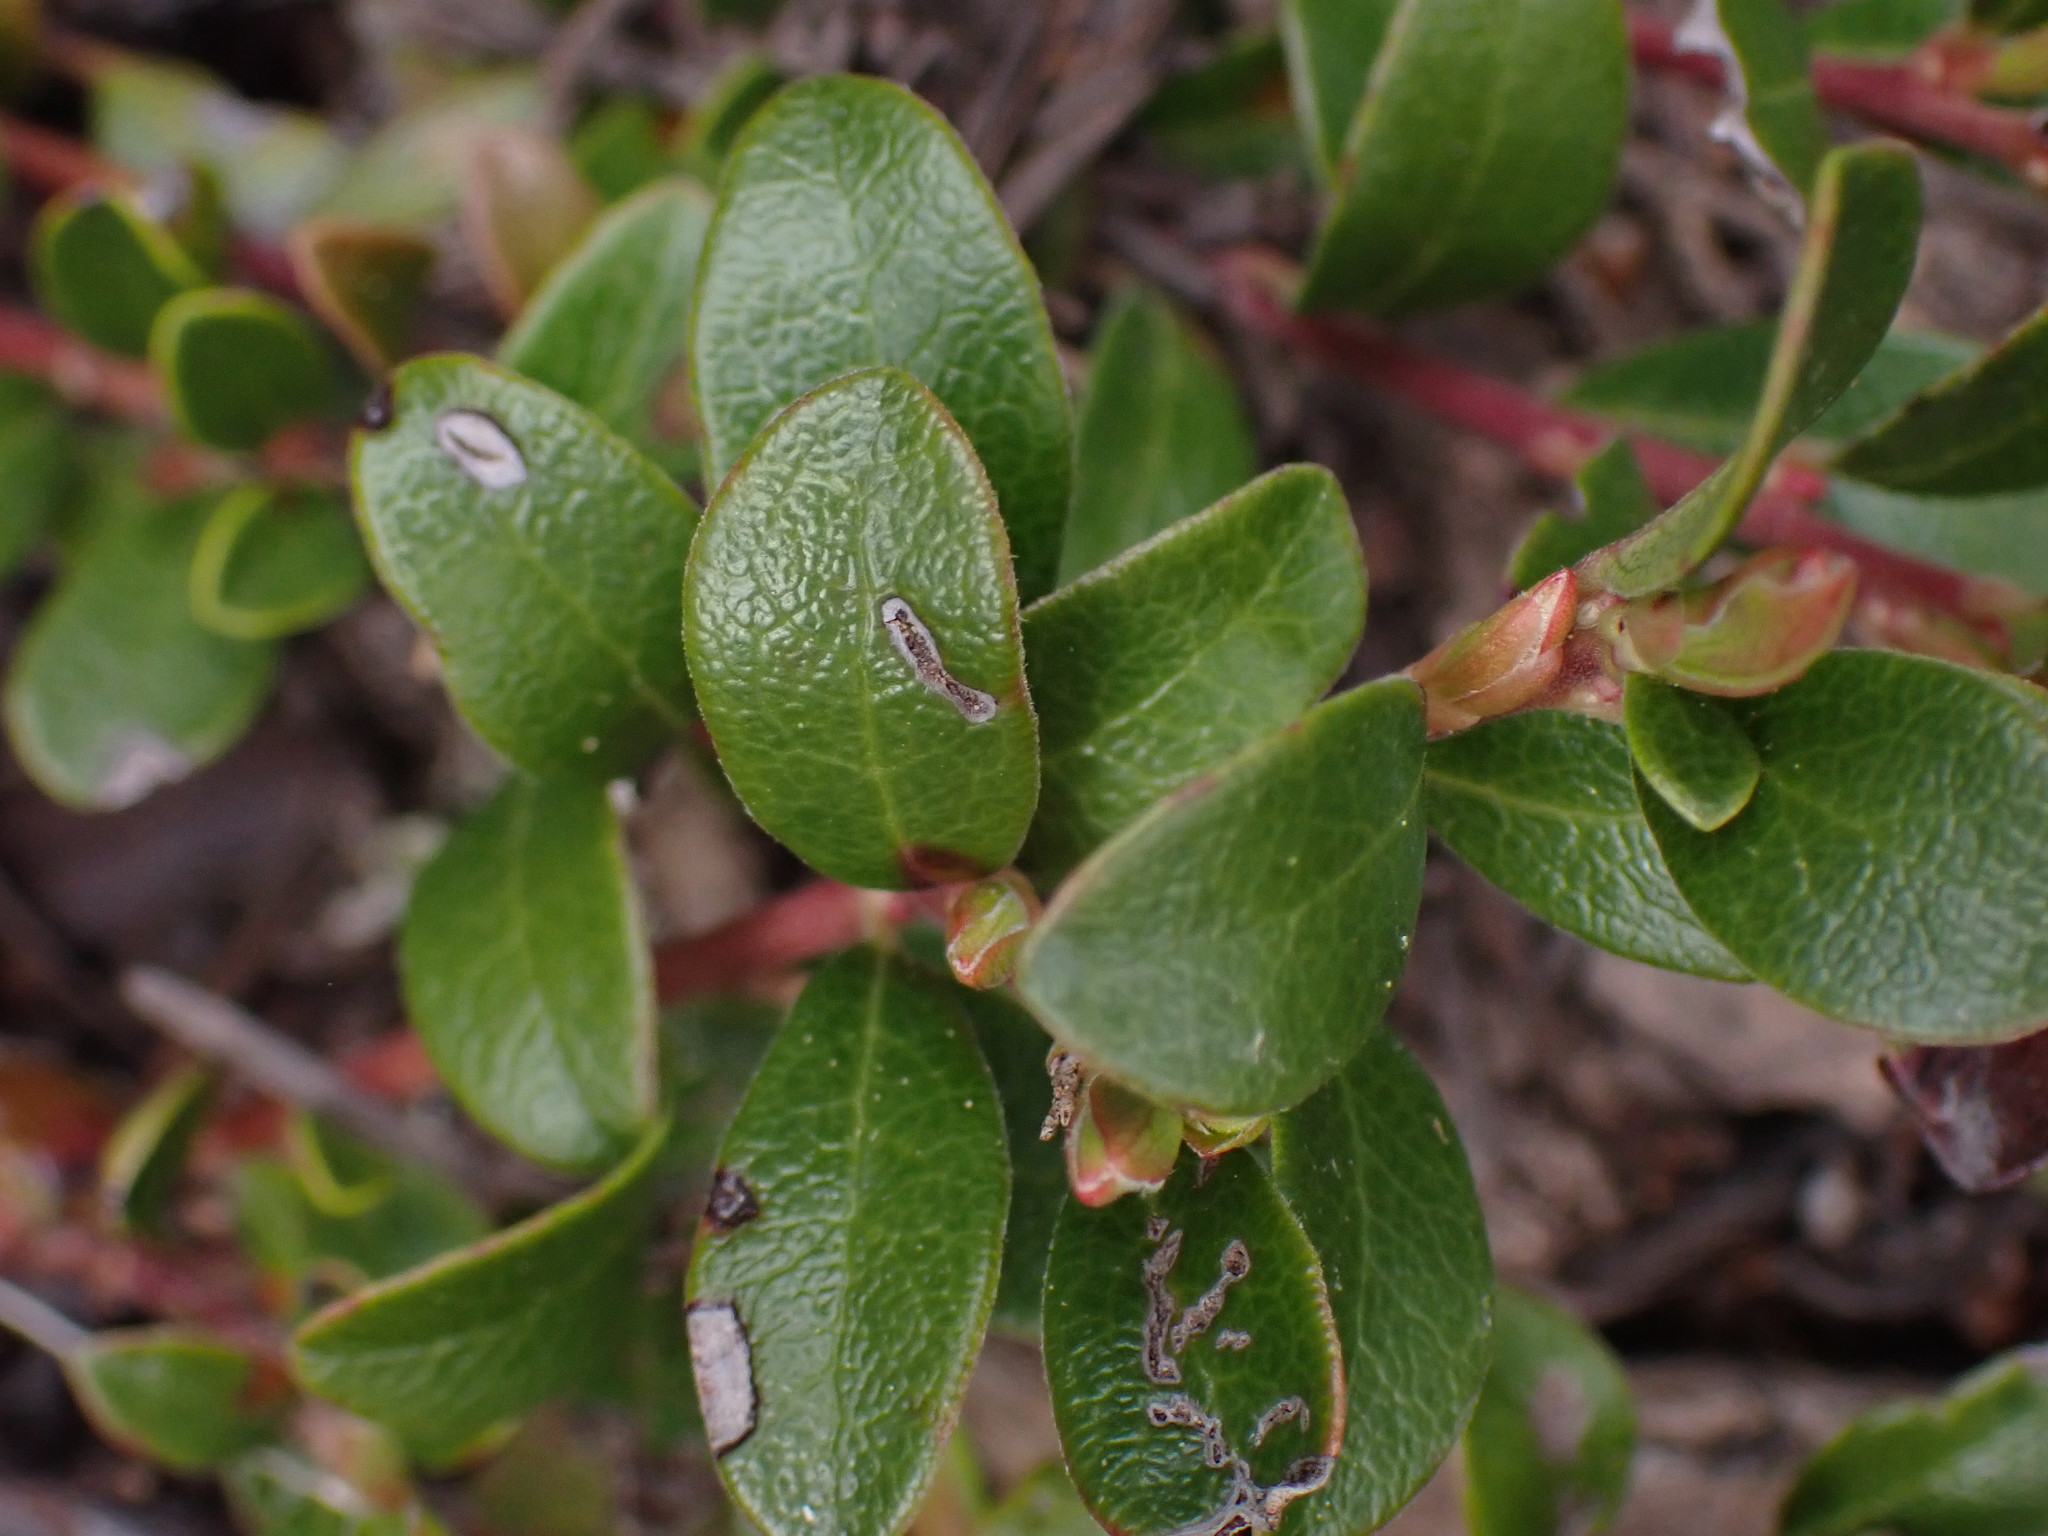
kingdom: Plantae
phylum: Tracheophyta
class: Magnoliopsida
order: Ericales
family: Ericaceae
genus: Arctostaphylos
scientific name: Arctostaphylos uva-ursi
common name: Bearberry
